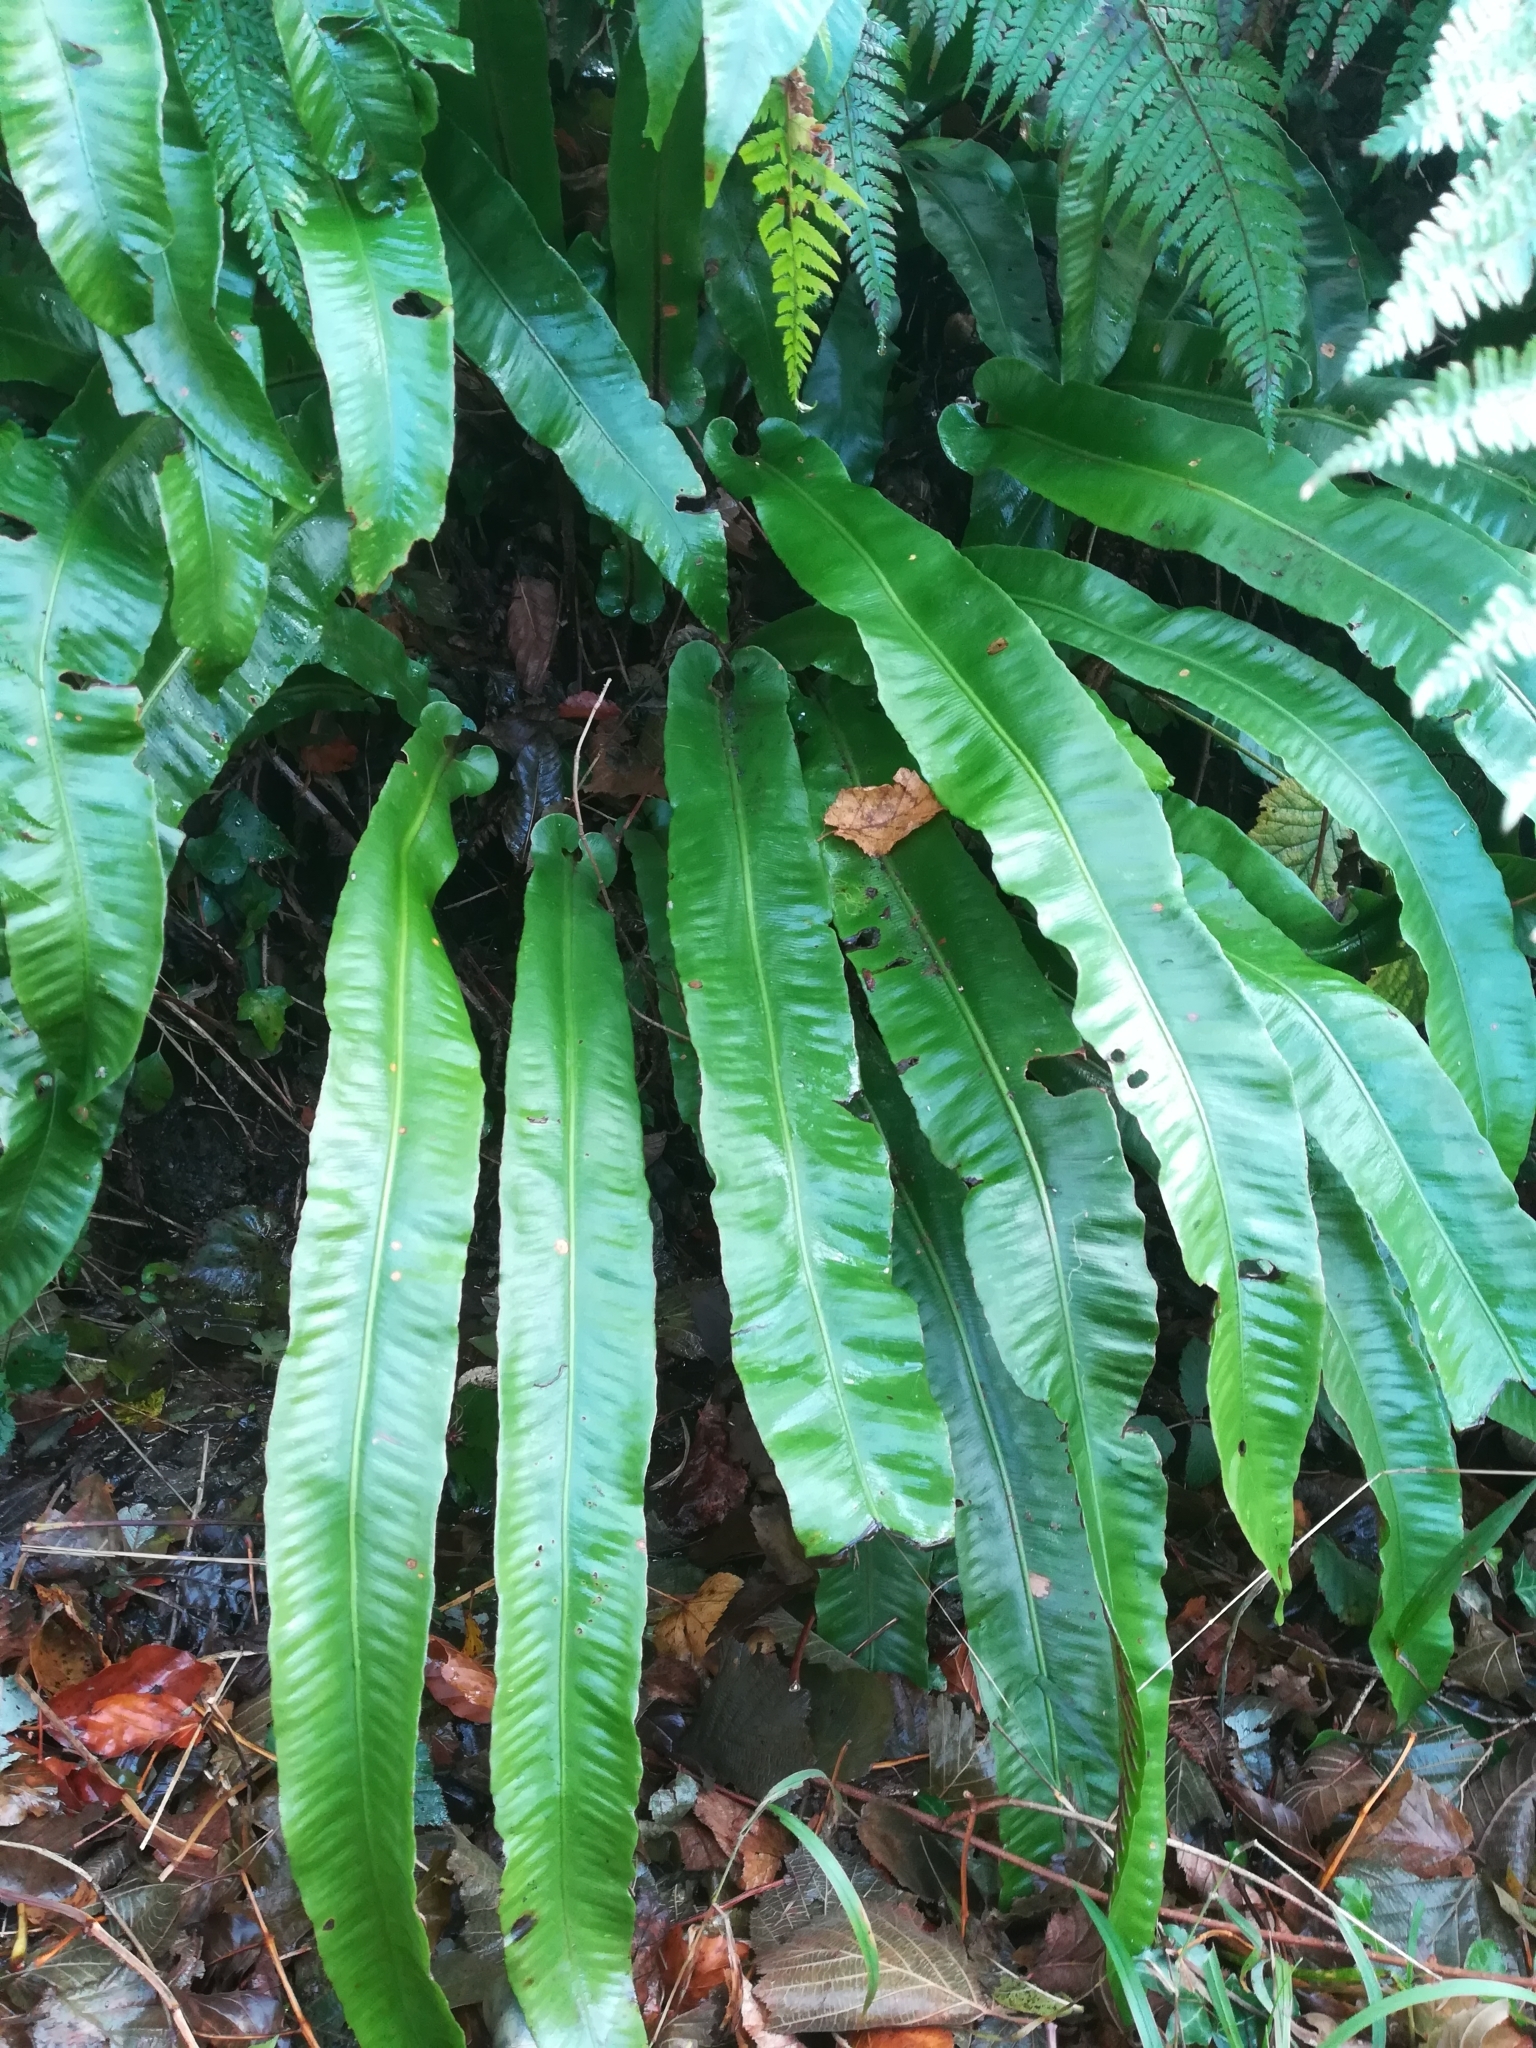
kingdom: Plantae
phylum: Tracheophyta
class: Polypodiopsida
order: Polypodiales
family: Aspleniaceae
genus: Asplenium
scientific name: Asplenium scolopendrium
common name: Hart's-tongue fern
